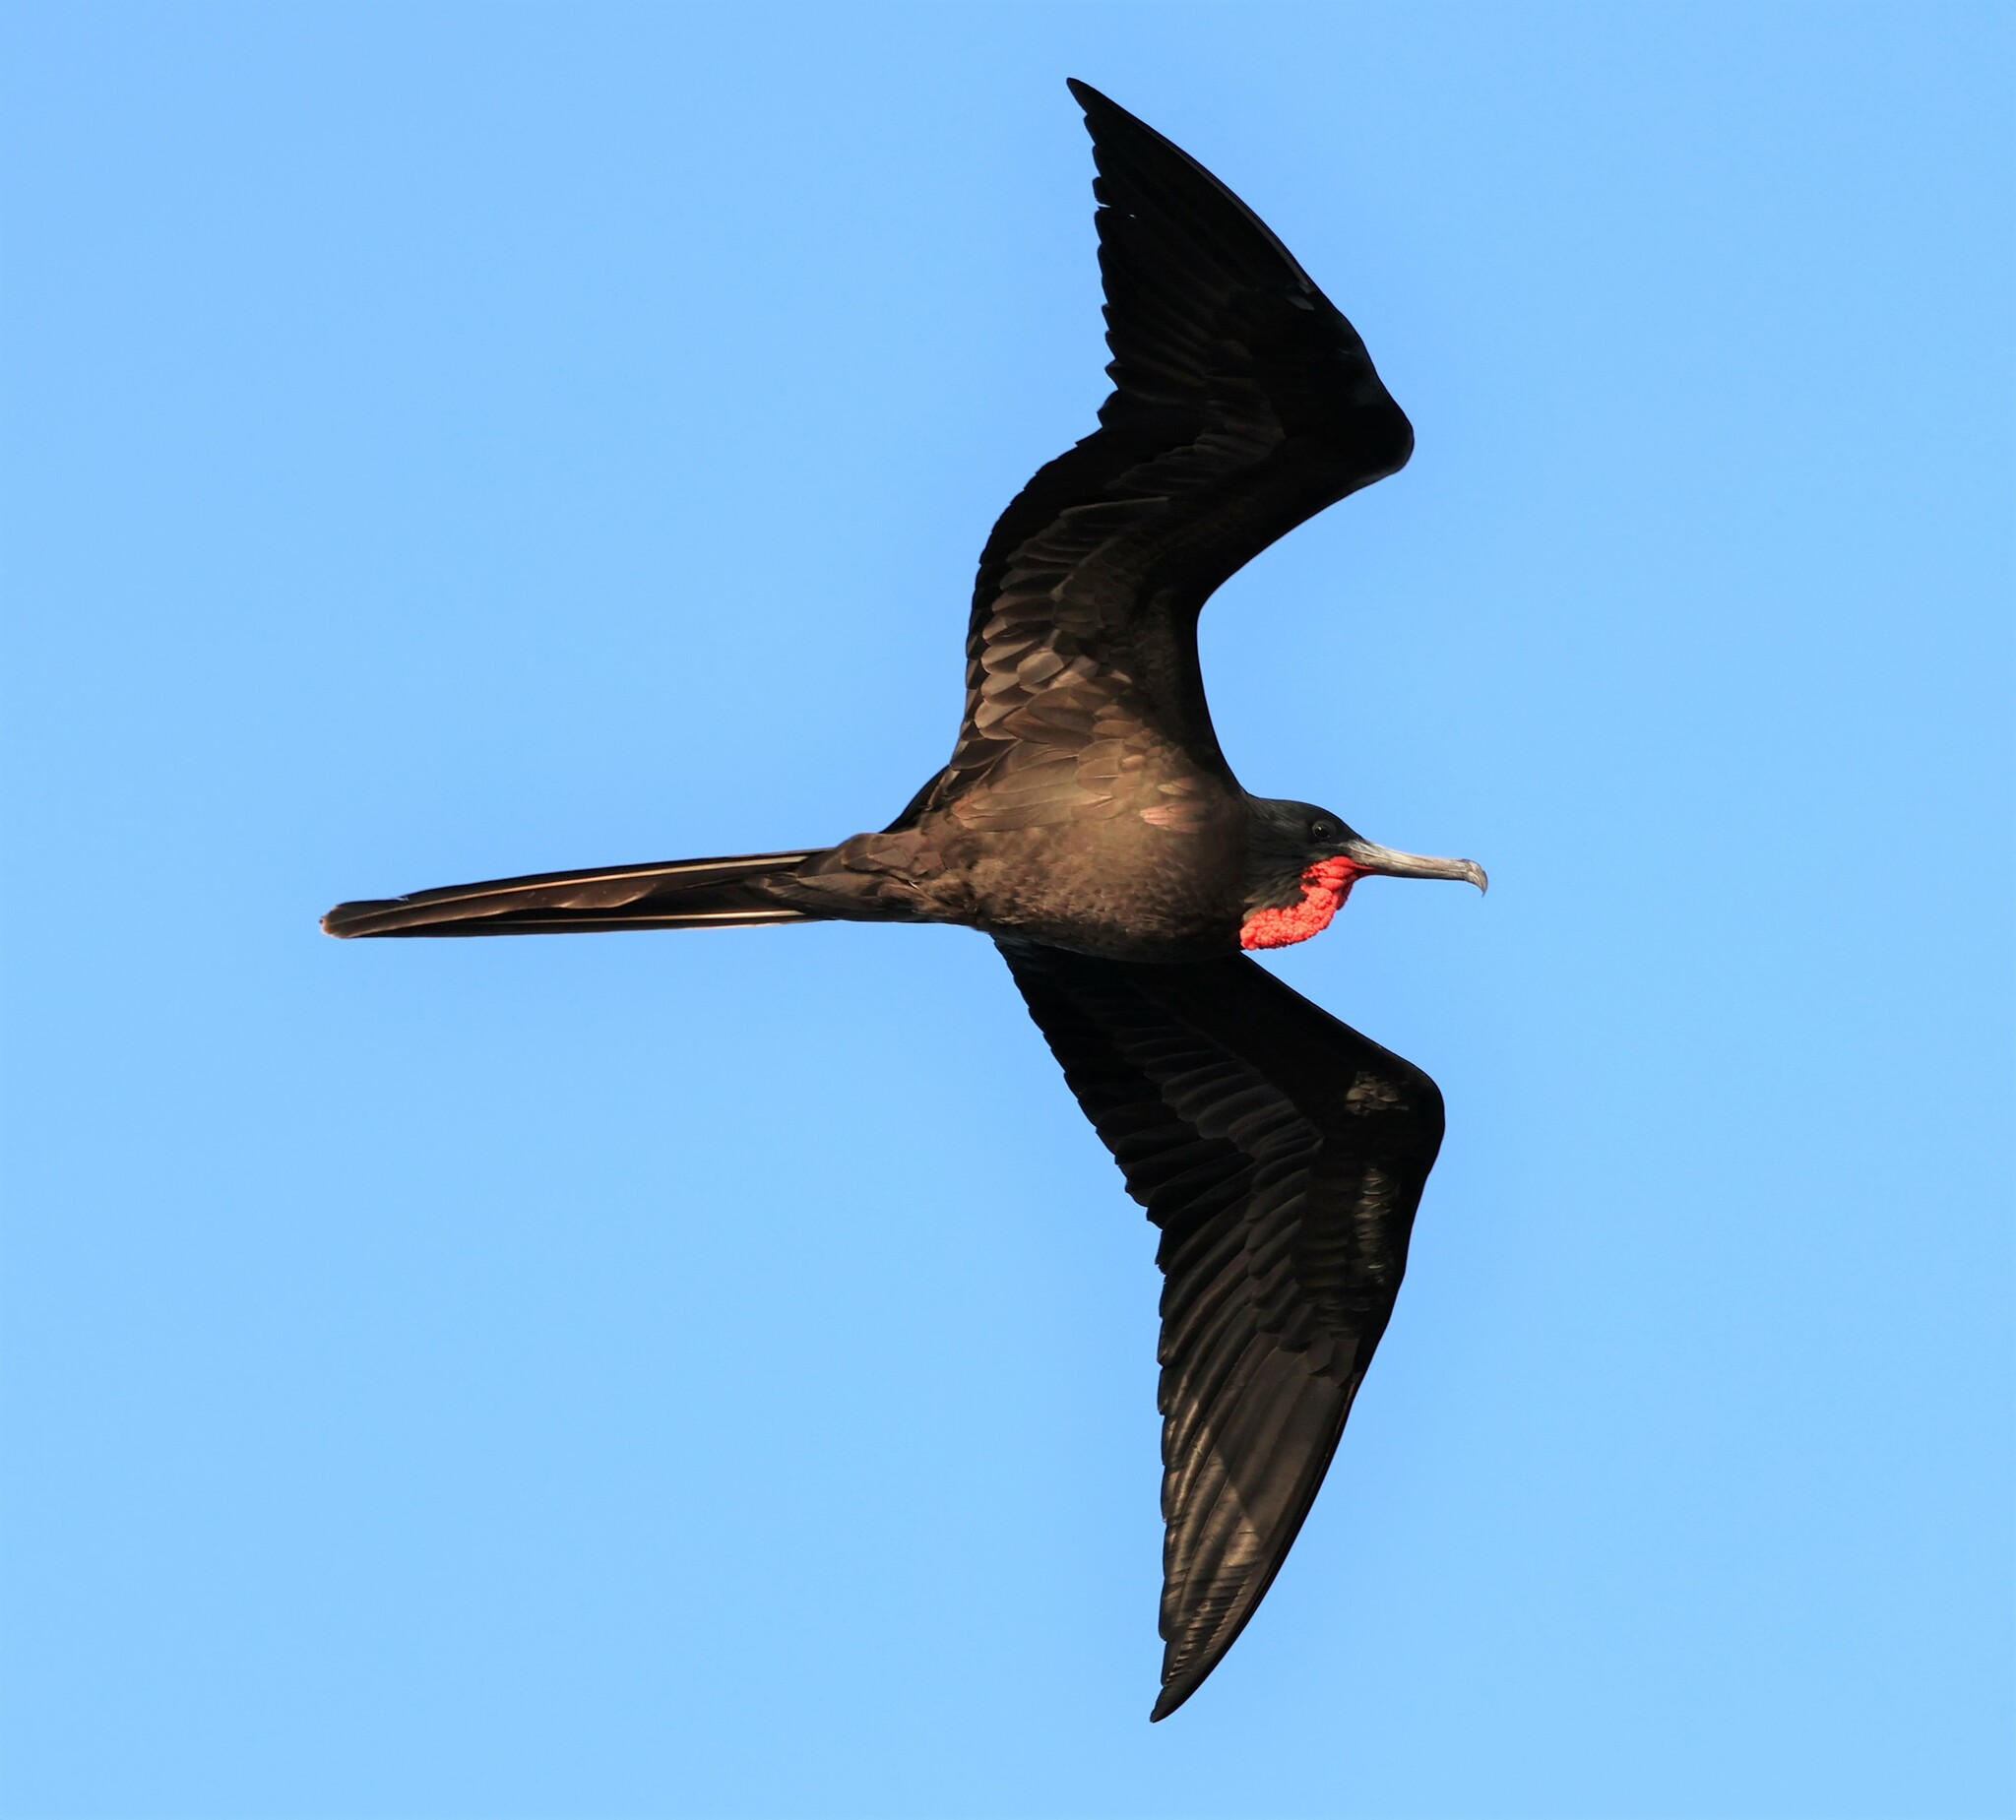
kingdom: Animalia
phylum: Chordata
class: Aves
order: Suliformes
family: Fregatidae
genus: Fregata
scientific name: Fregata magnificens
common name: Magnificent frigatebird
